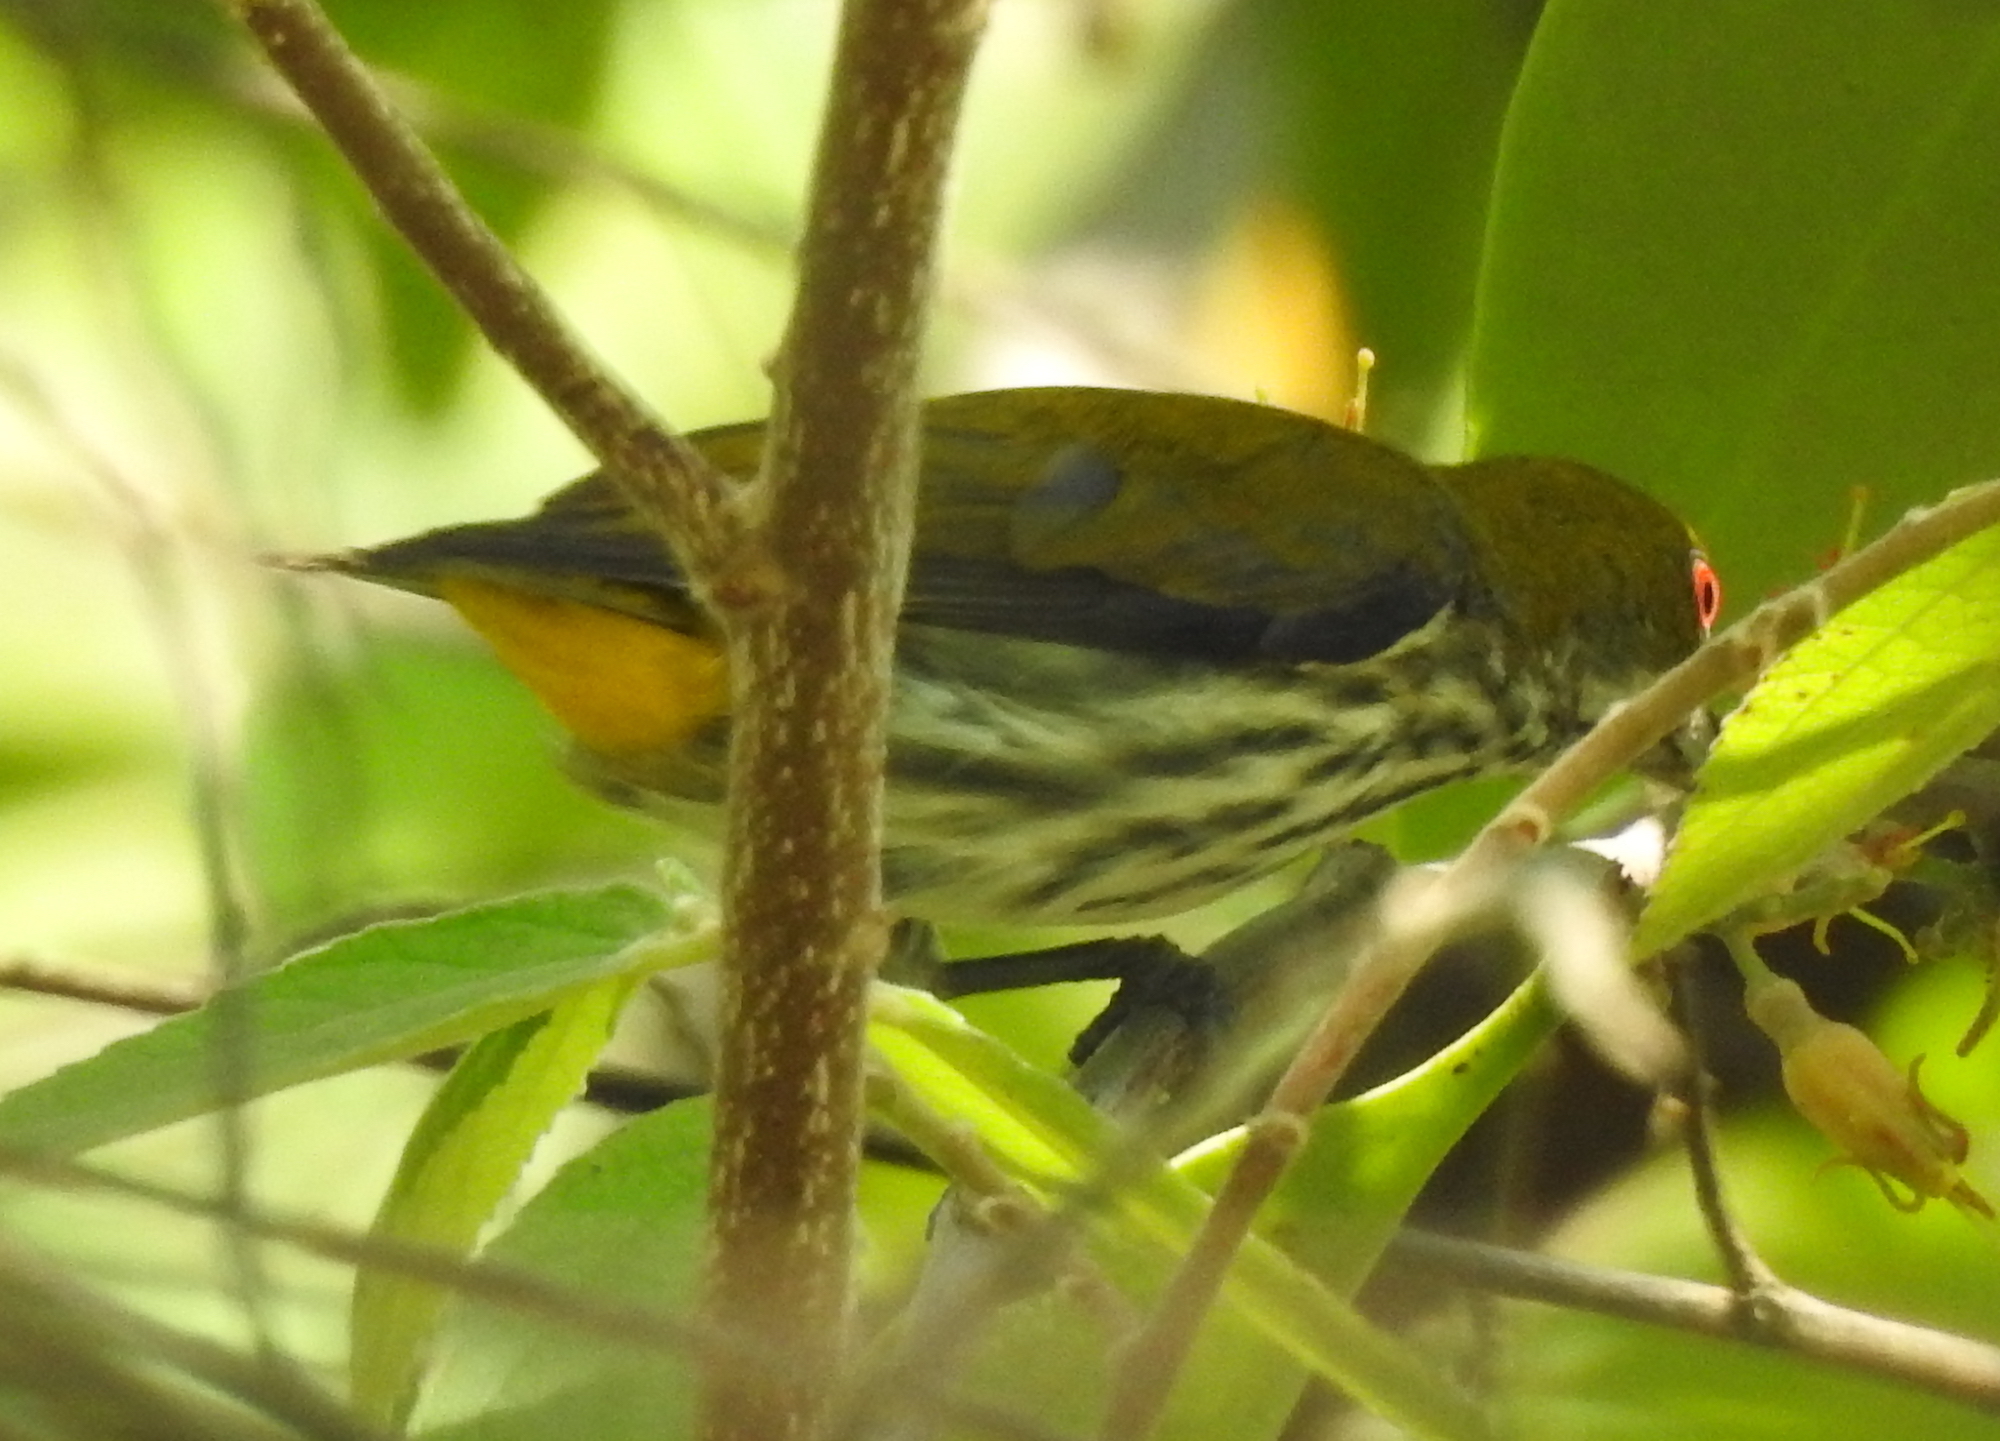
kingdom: Animalia
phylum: Chordata
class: Aves
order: Passeriformes
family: Dicaeidae
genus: Dicaeum
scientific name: Dicaeum chrysorrheum
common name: Yellow-vented flowerpecker
